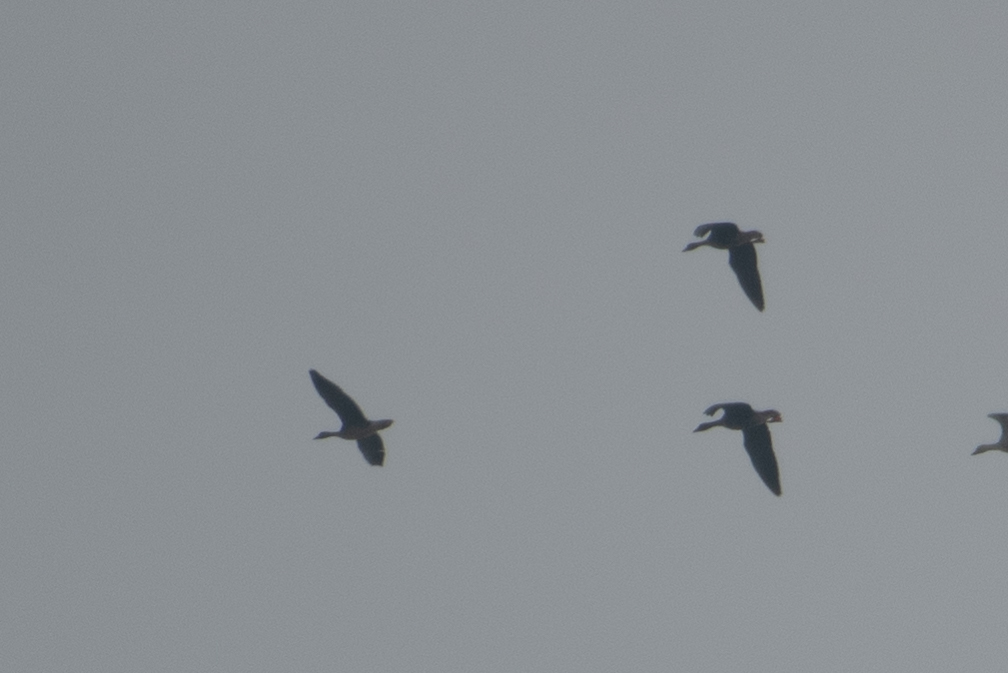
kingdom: Animalia
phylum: Chordata
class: Aves
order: Anseriformes
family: Anatidae
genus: Anser
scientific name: Anser albifrons
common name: Greater white-fronted goose
